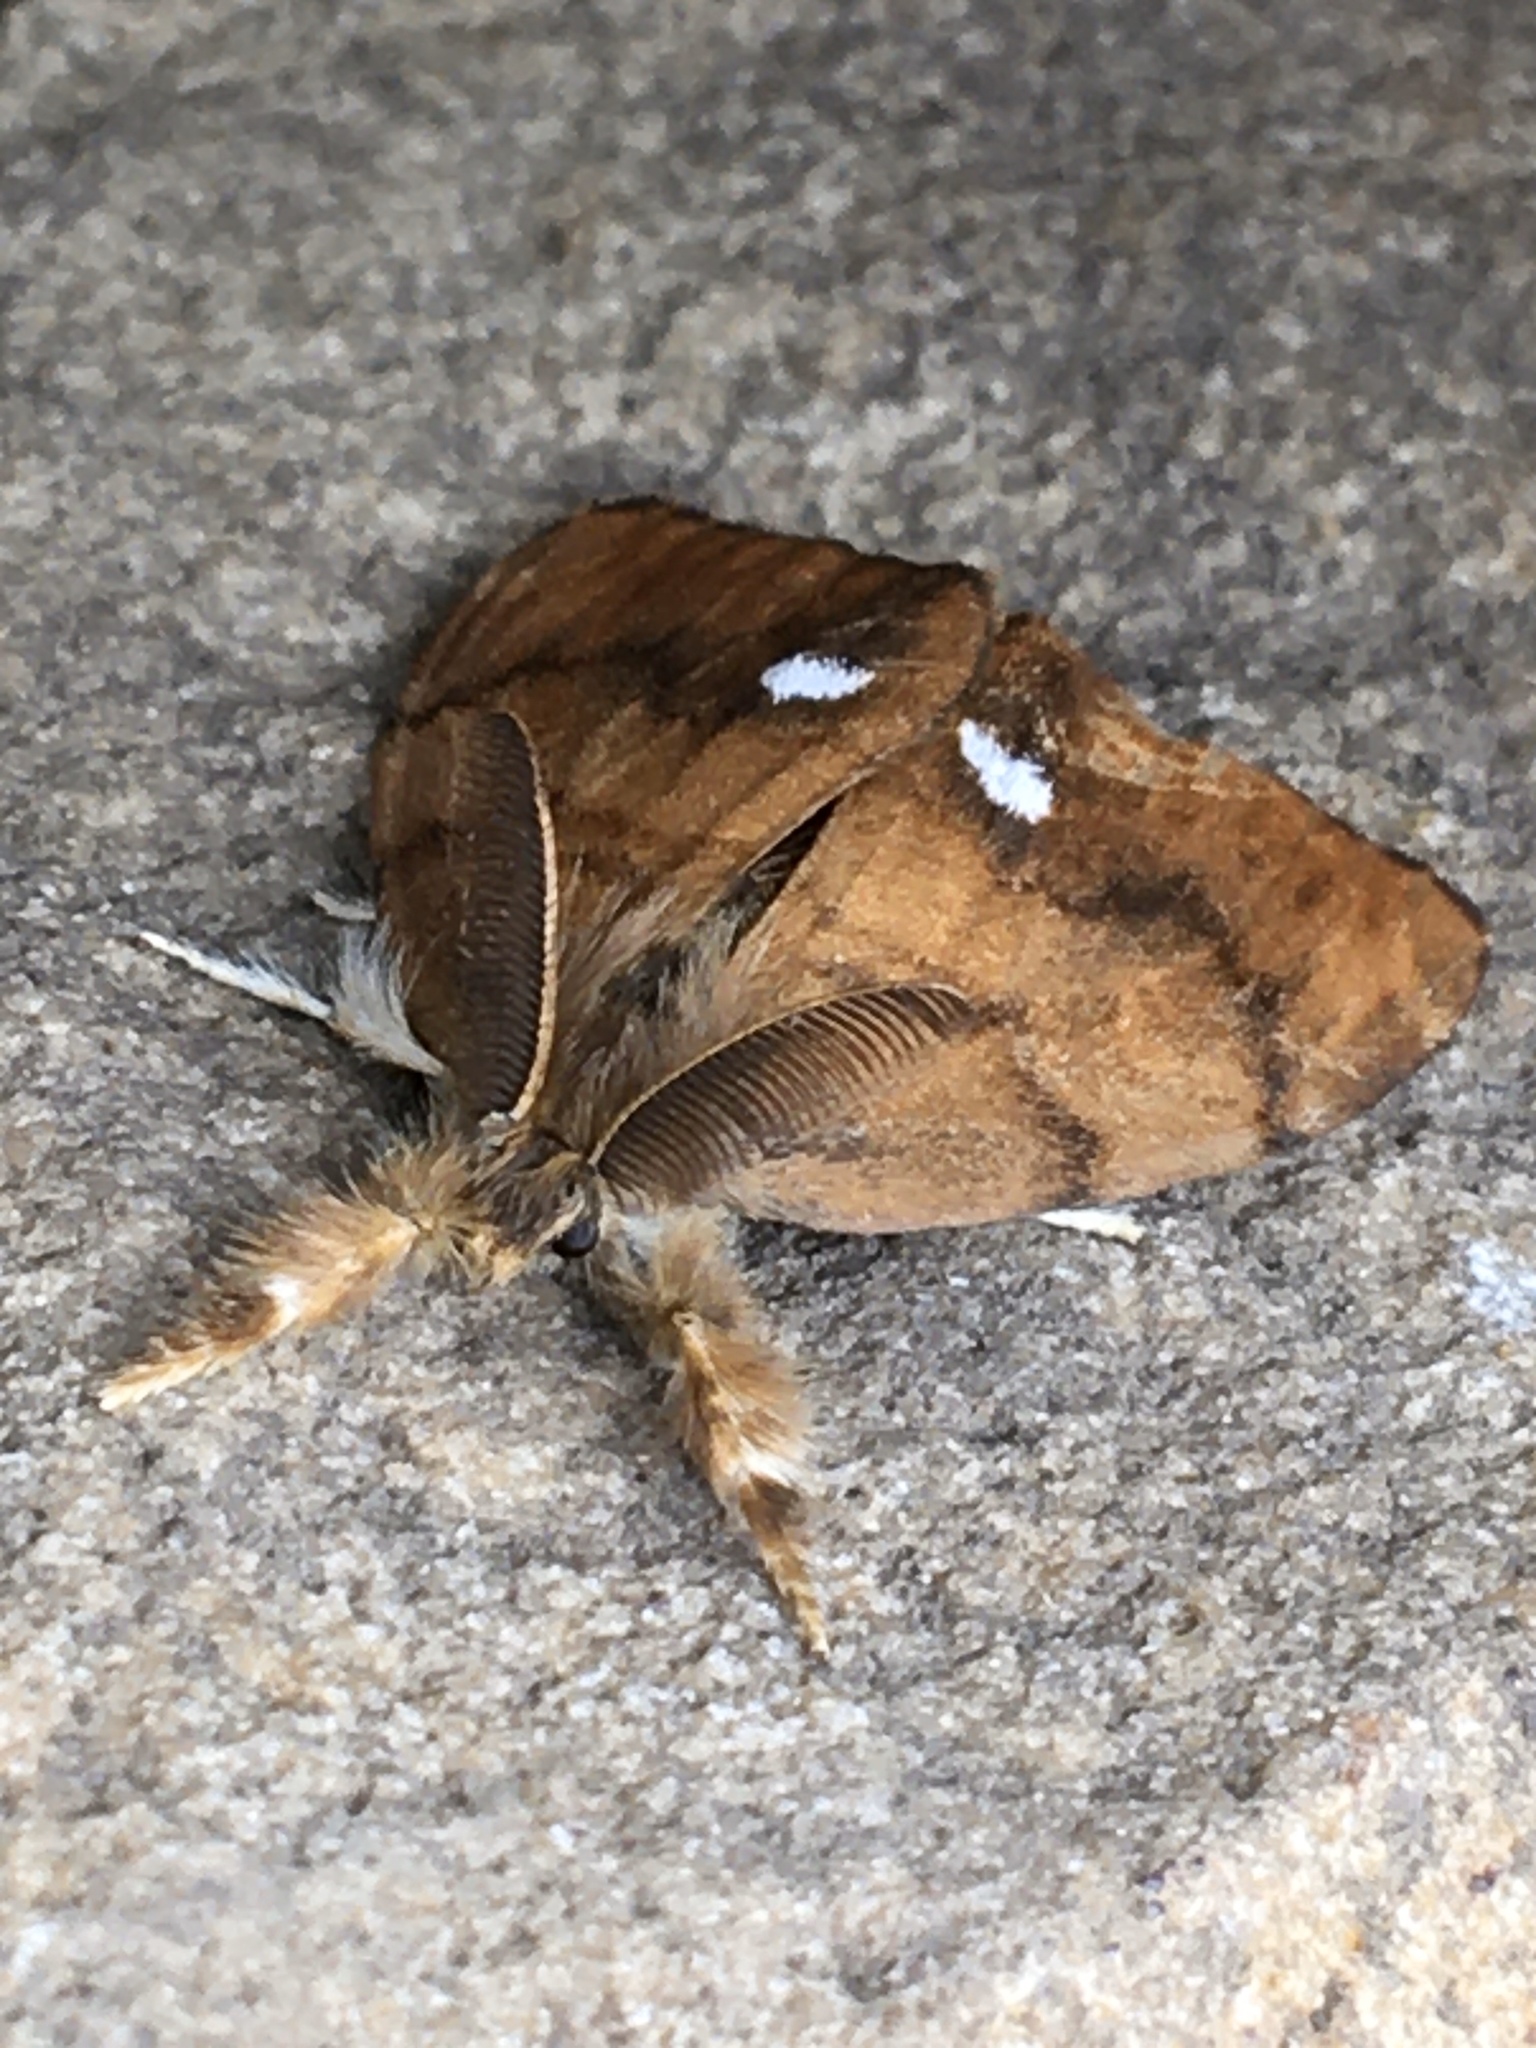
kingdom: Animalia
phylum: Arthropoda
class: Insecta
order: Lepidoptera
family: Erebidae
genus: Orgyia
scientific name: Orgyia antiqua
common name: Vapourer
